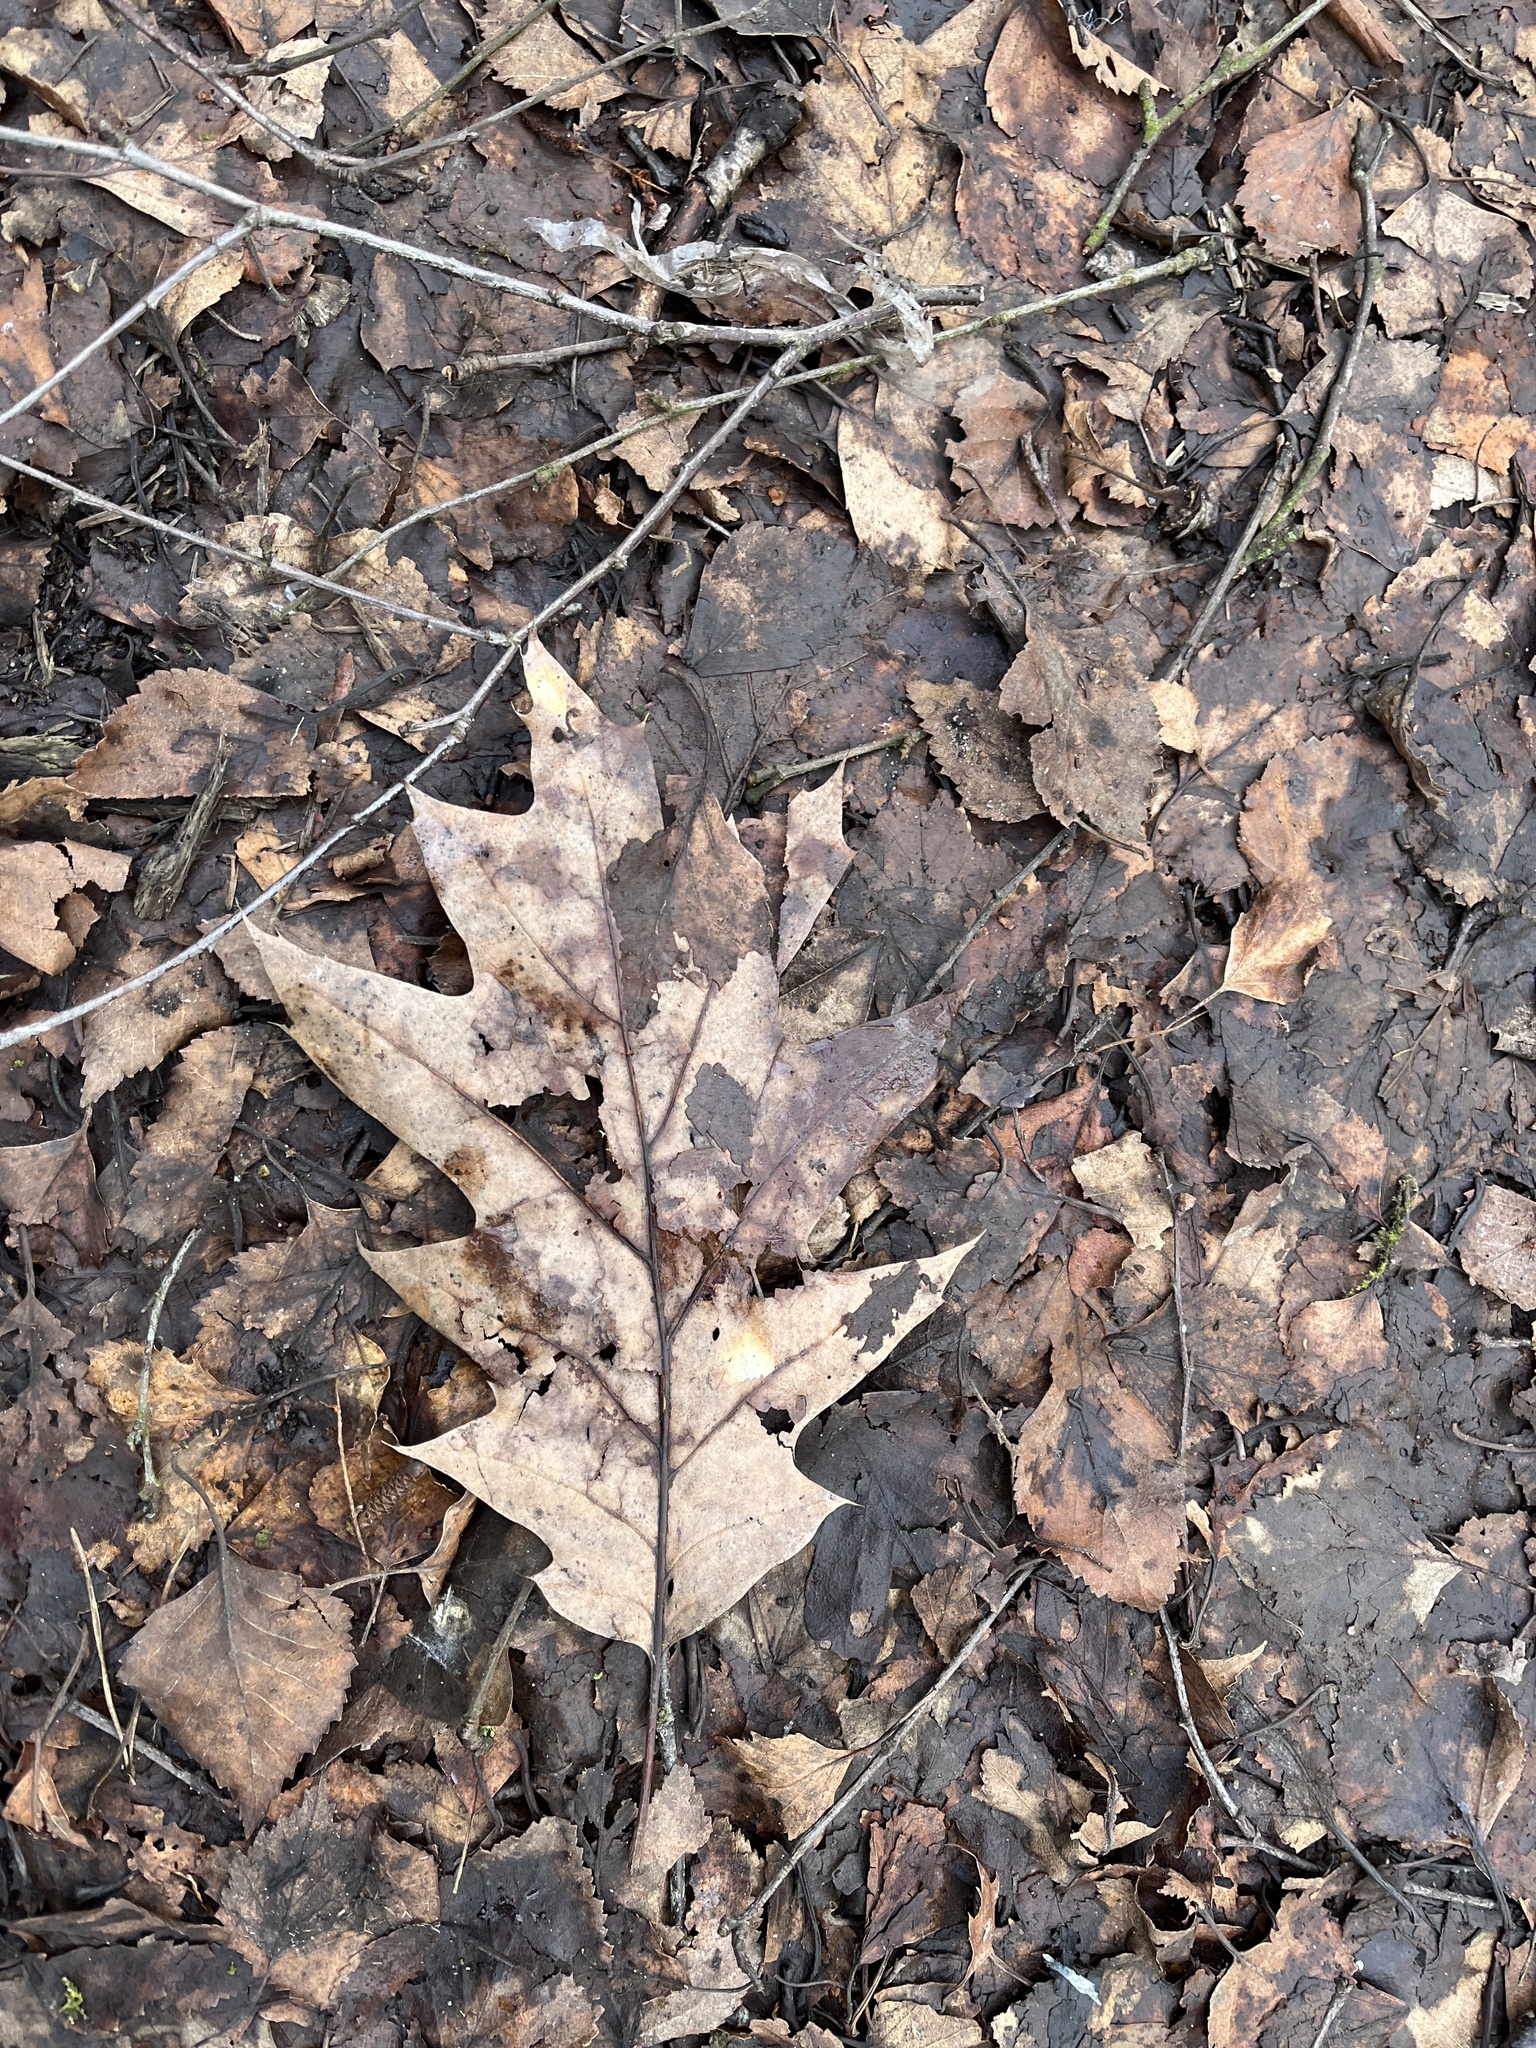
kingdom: Plantae
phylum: Tracheophyta
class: Magnoliopsida
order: Fagales
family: Fagaceae
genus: Quercus
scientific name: Quercus rubra
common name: Red oak
